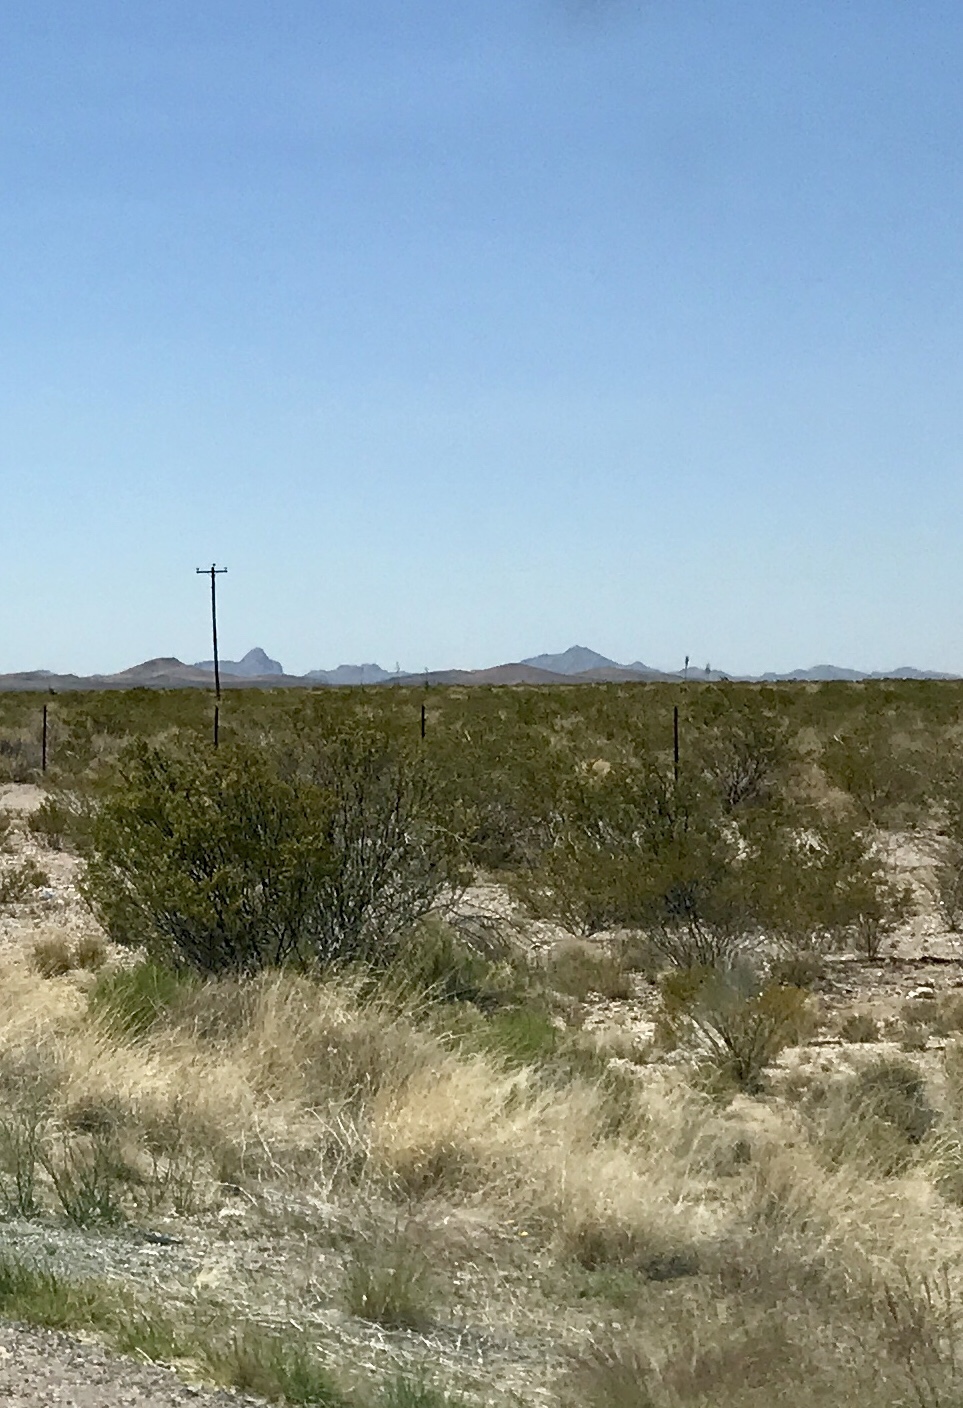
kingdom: Plantae
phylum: Tracheophyta
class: Magnoliopsida
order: Zygophyllales
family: Zygophyllaceae
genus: Larrea
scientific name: Larrea tridentata
